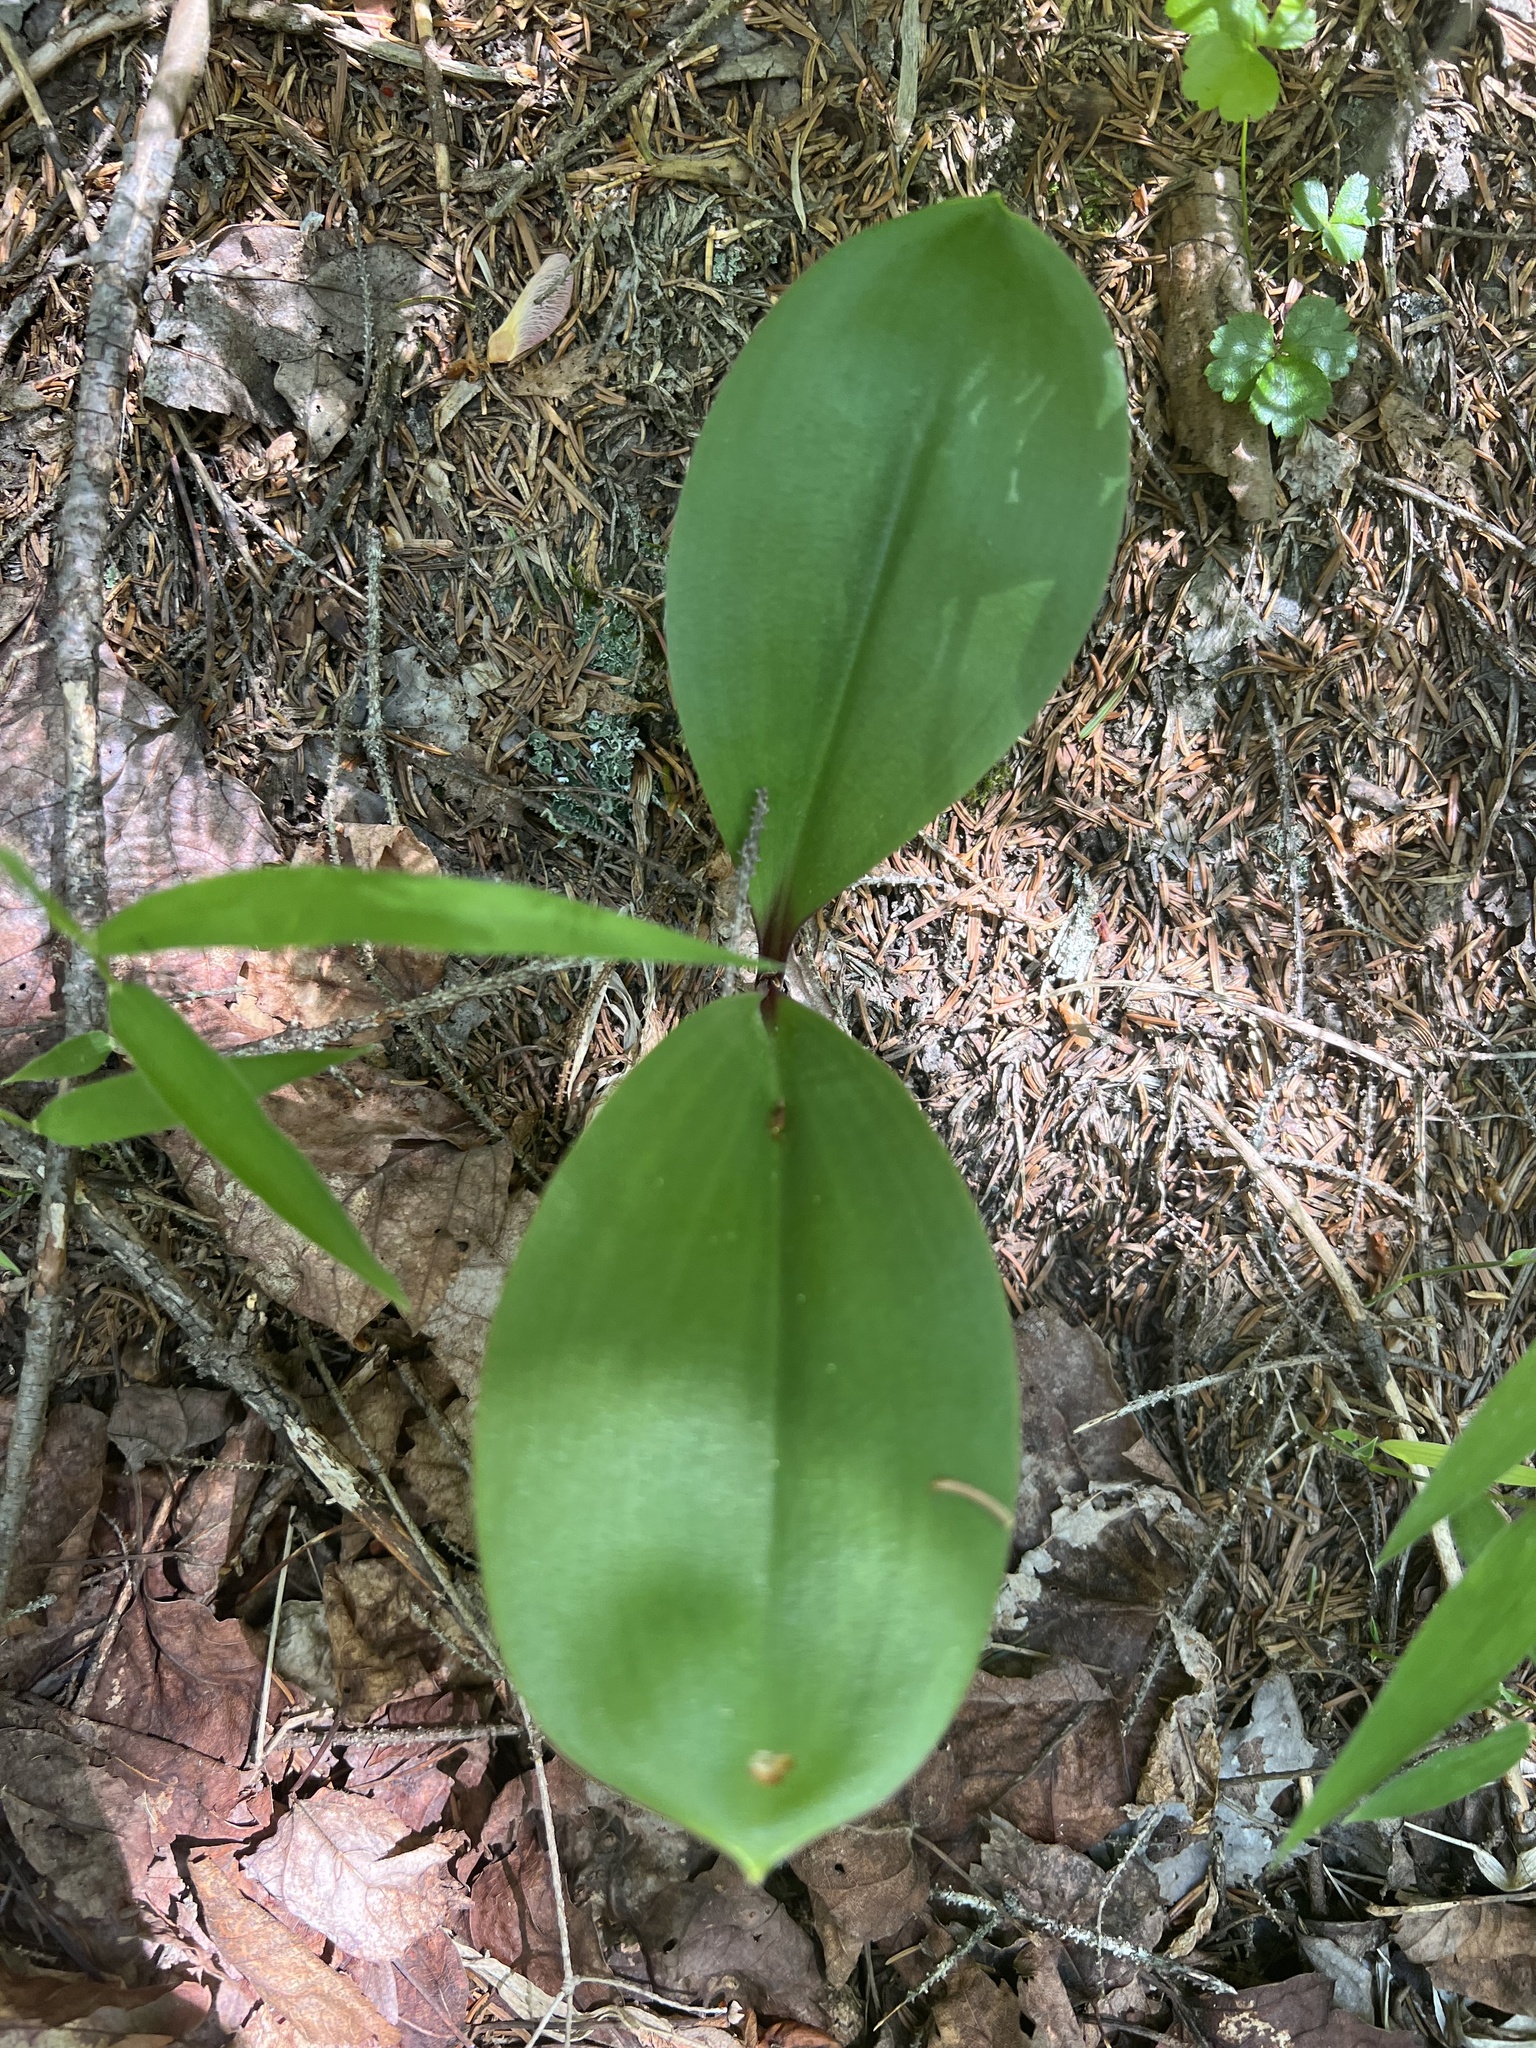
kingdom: Plantae
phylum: Tracheophyta
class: Liliopsida
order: Liliales
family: Liliaceae
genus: Clintonia
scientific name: Clintonia borealis
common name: Yellow clintonia
